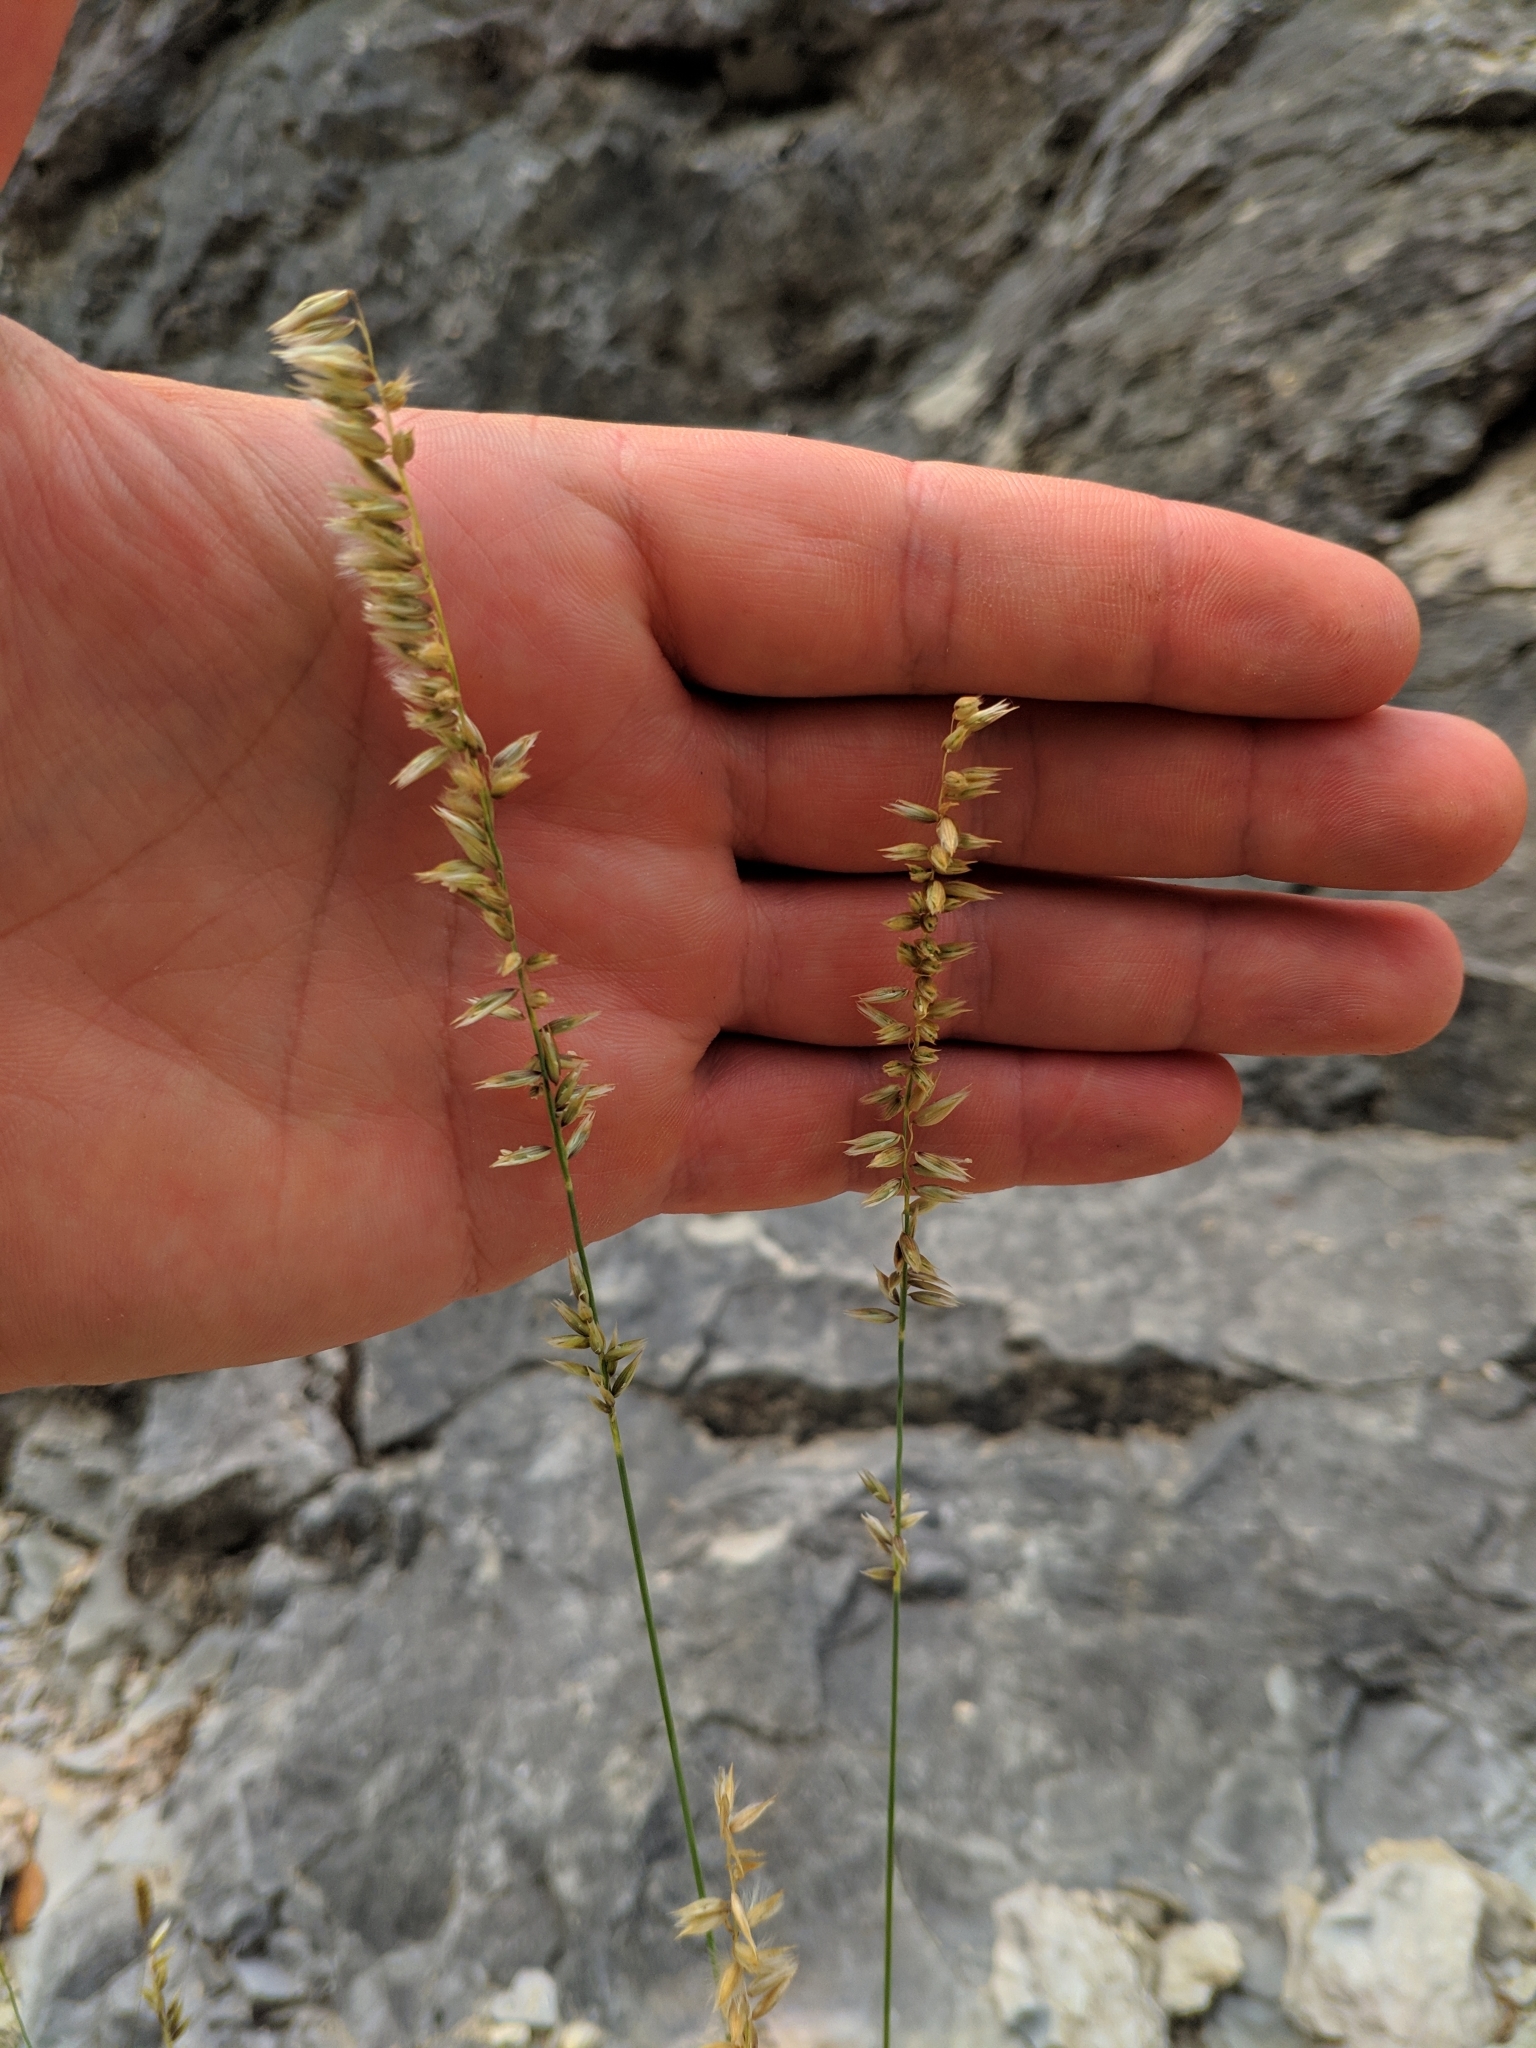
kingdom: Plantae
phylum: Tracheophyta
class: Liliopsida
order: Poales
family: Poaceae
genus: Melica
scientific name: Melica ciliata
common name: Hairy melicgrass
